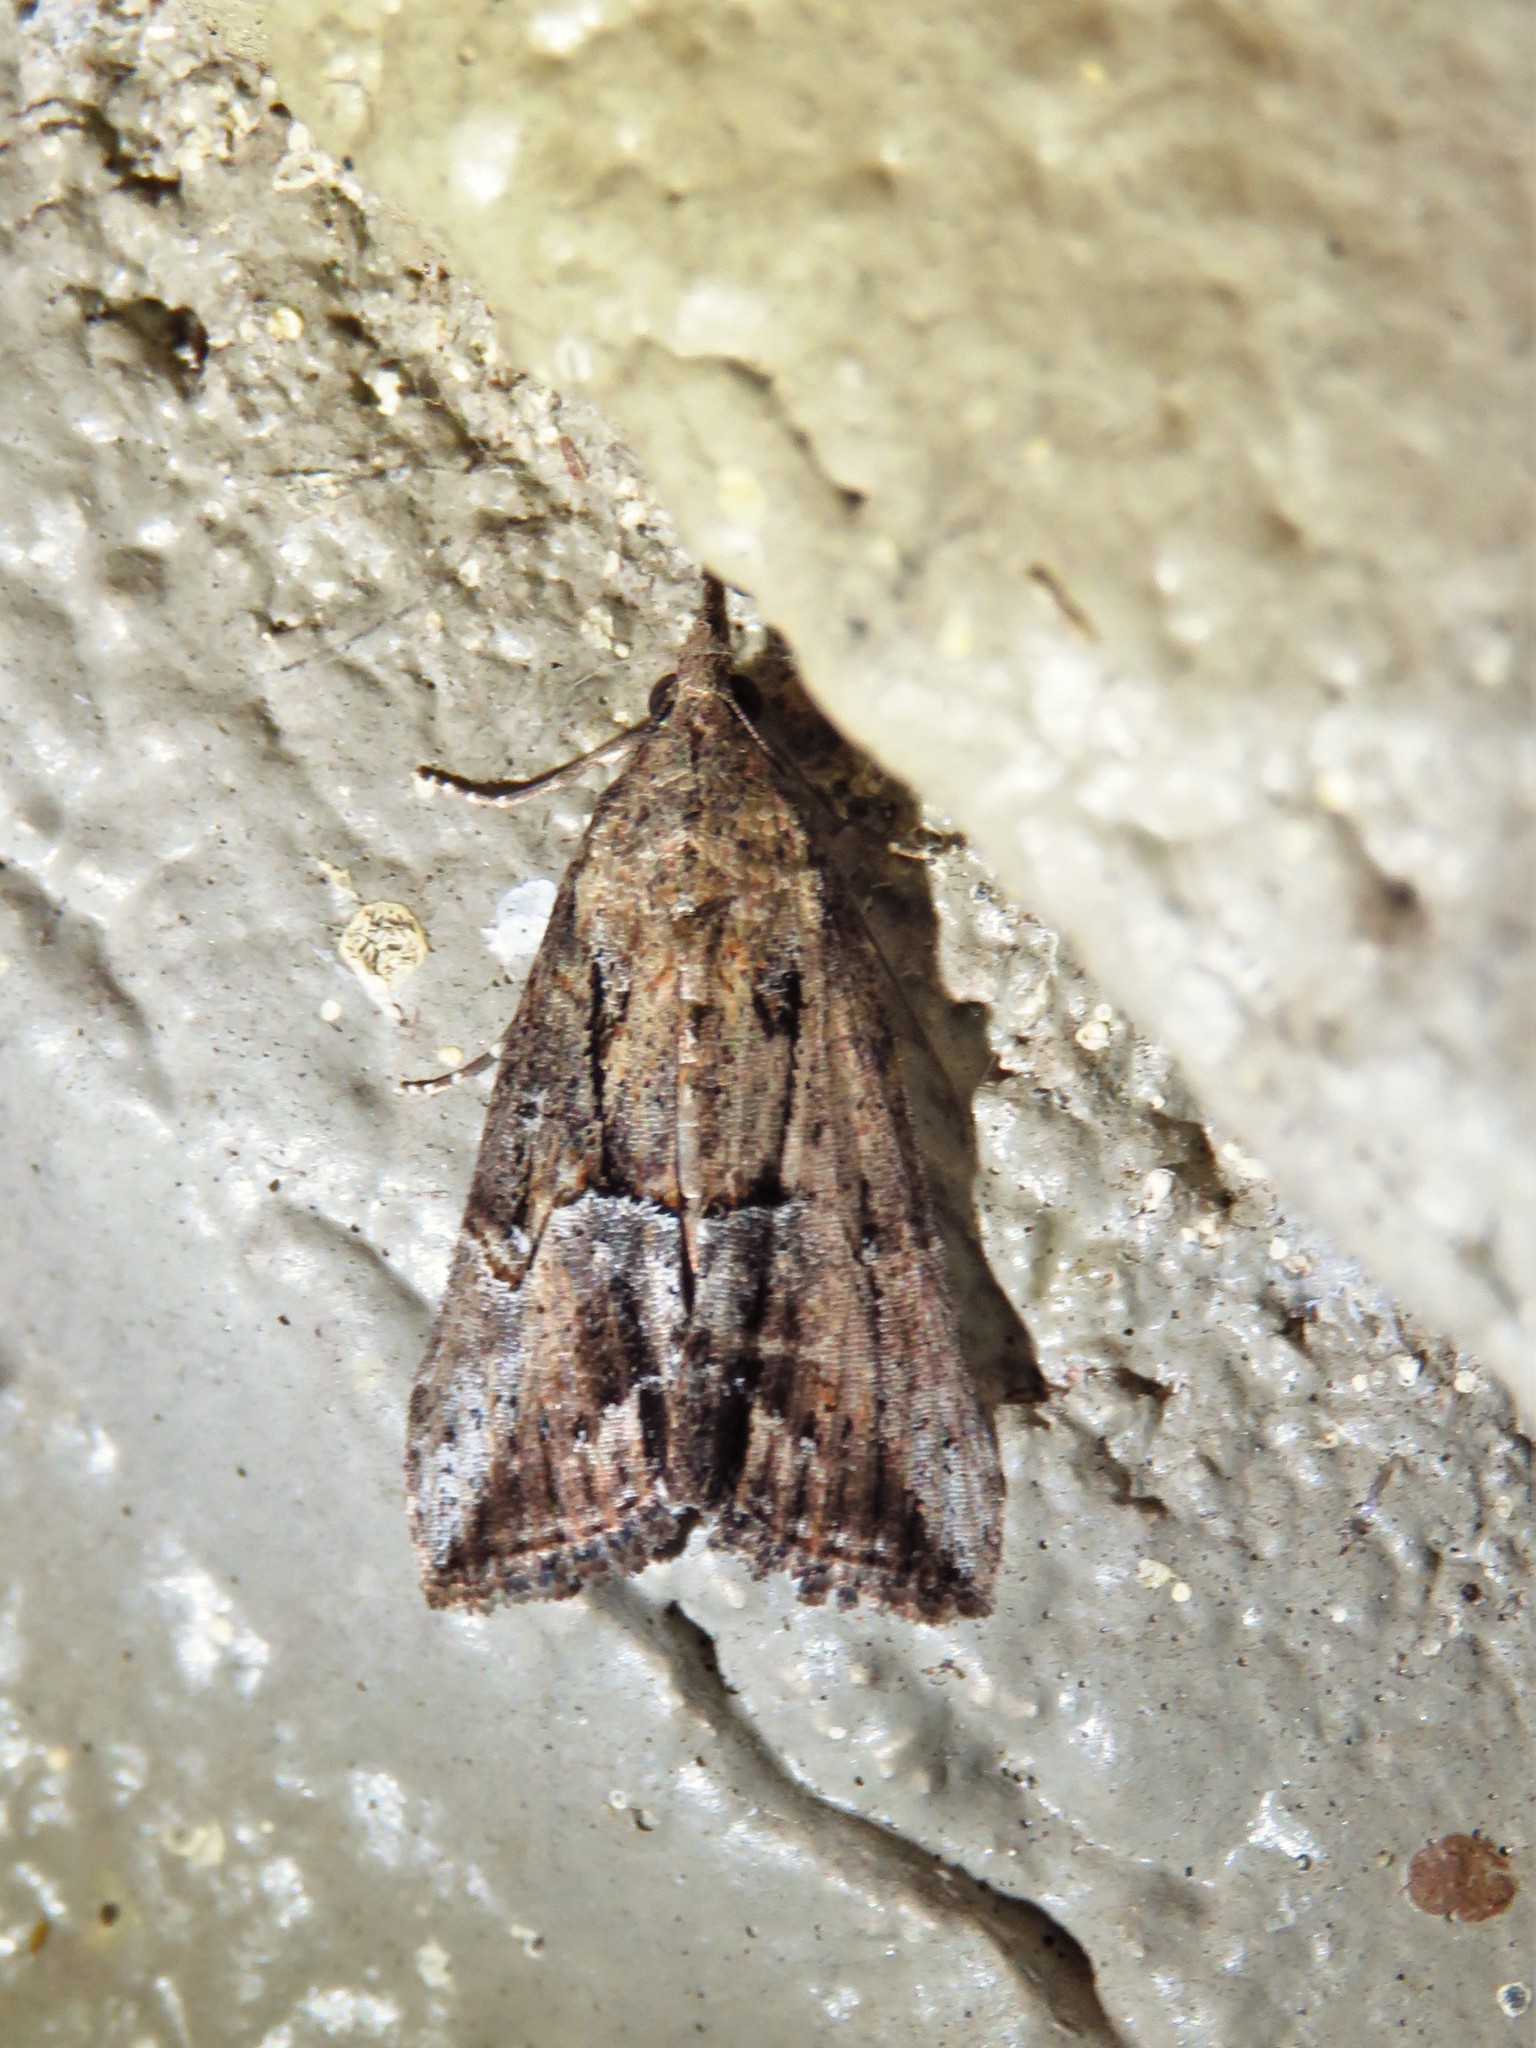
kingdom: Animalia
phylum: Arthropoda
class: Insecta
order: Lepidoptera
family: Erebidae
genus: Hypena
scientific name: Hypena scabra
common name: Green cloverworm
